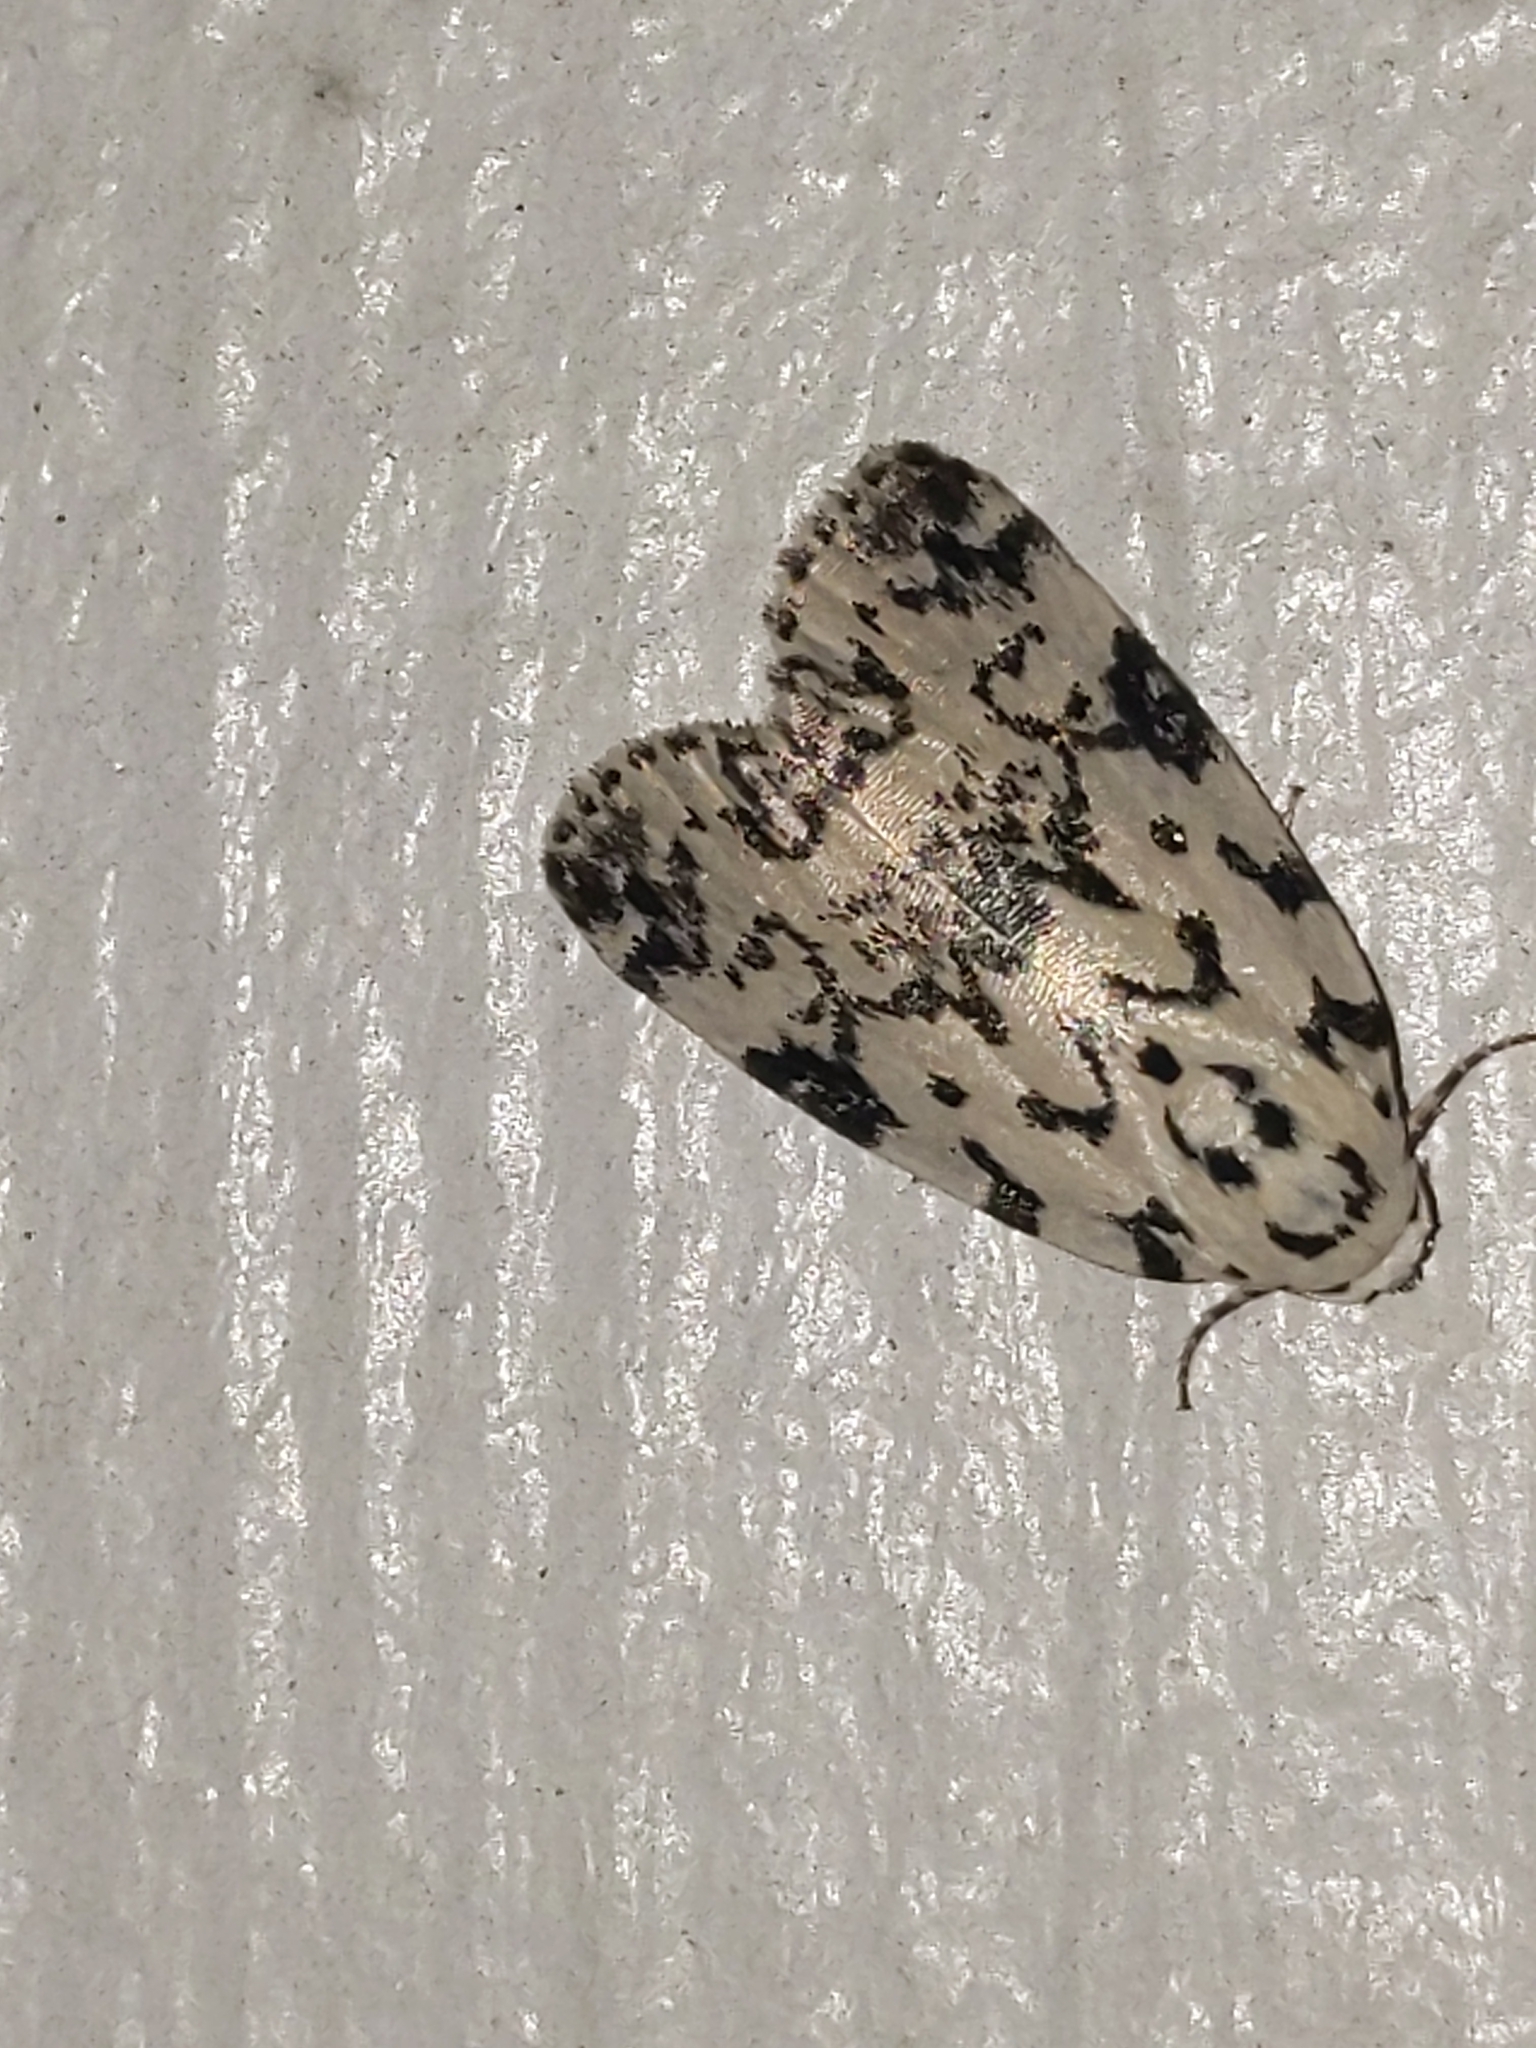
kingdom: Animalia
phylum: Arthropoda
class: Insecta
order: Lepidoptera
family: Noctuidae
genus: Polygrammate
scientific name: Polygrammate hebraeicum
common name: Hebrew moth
